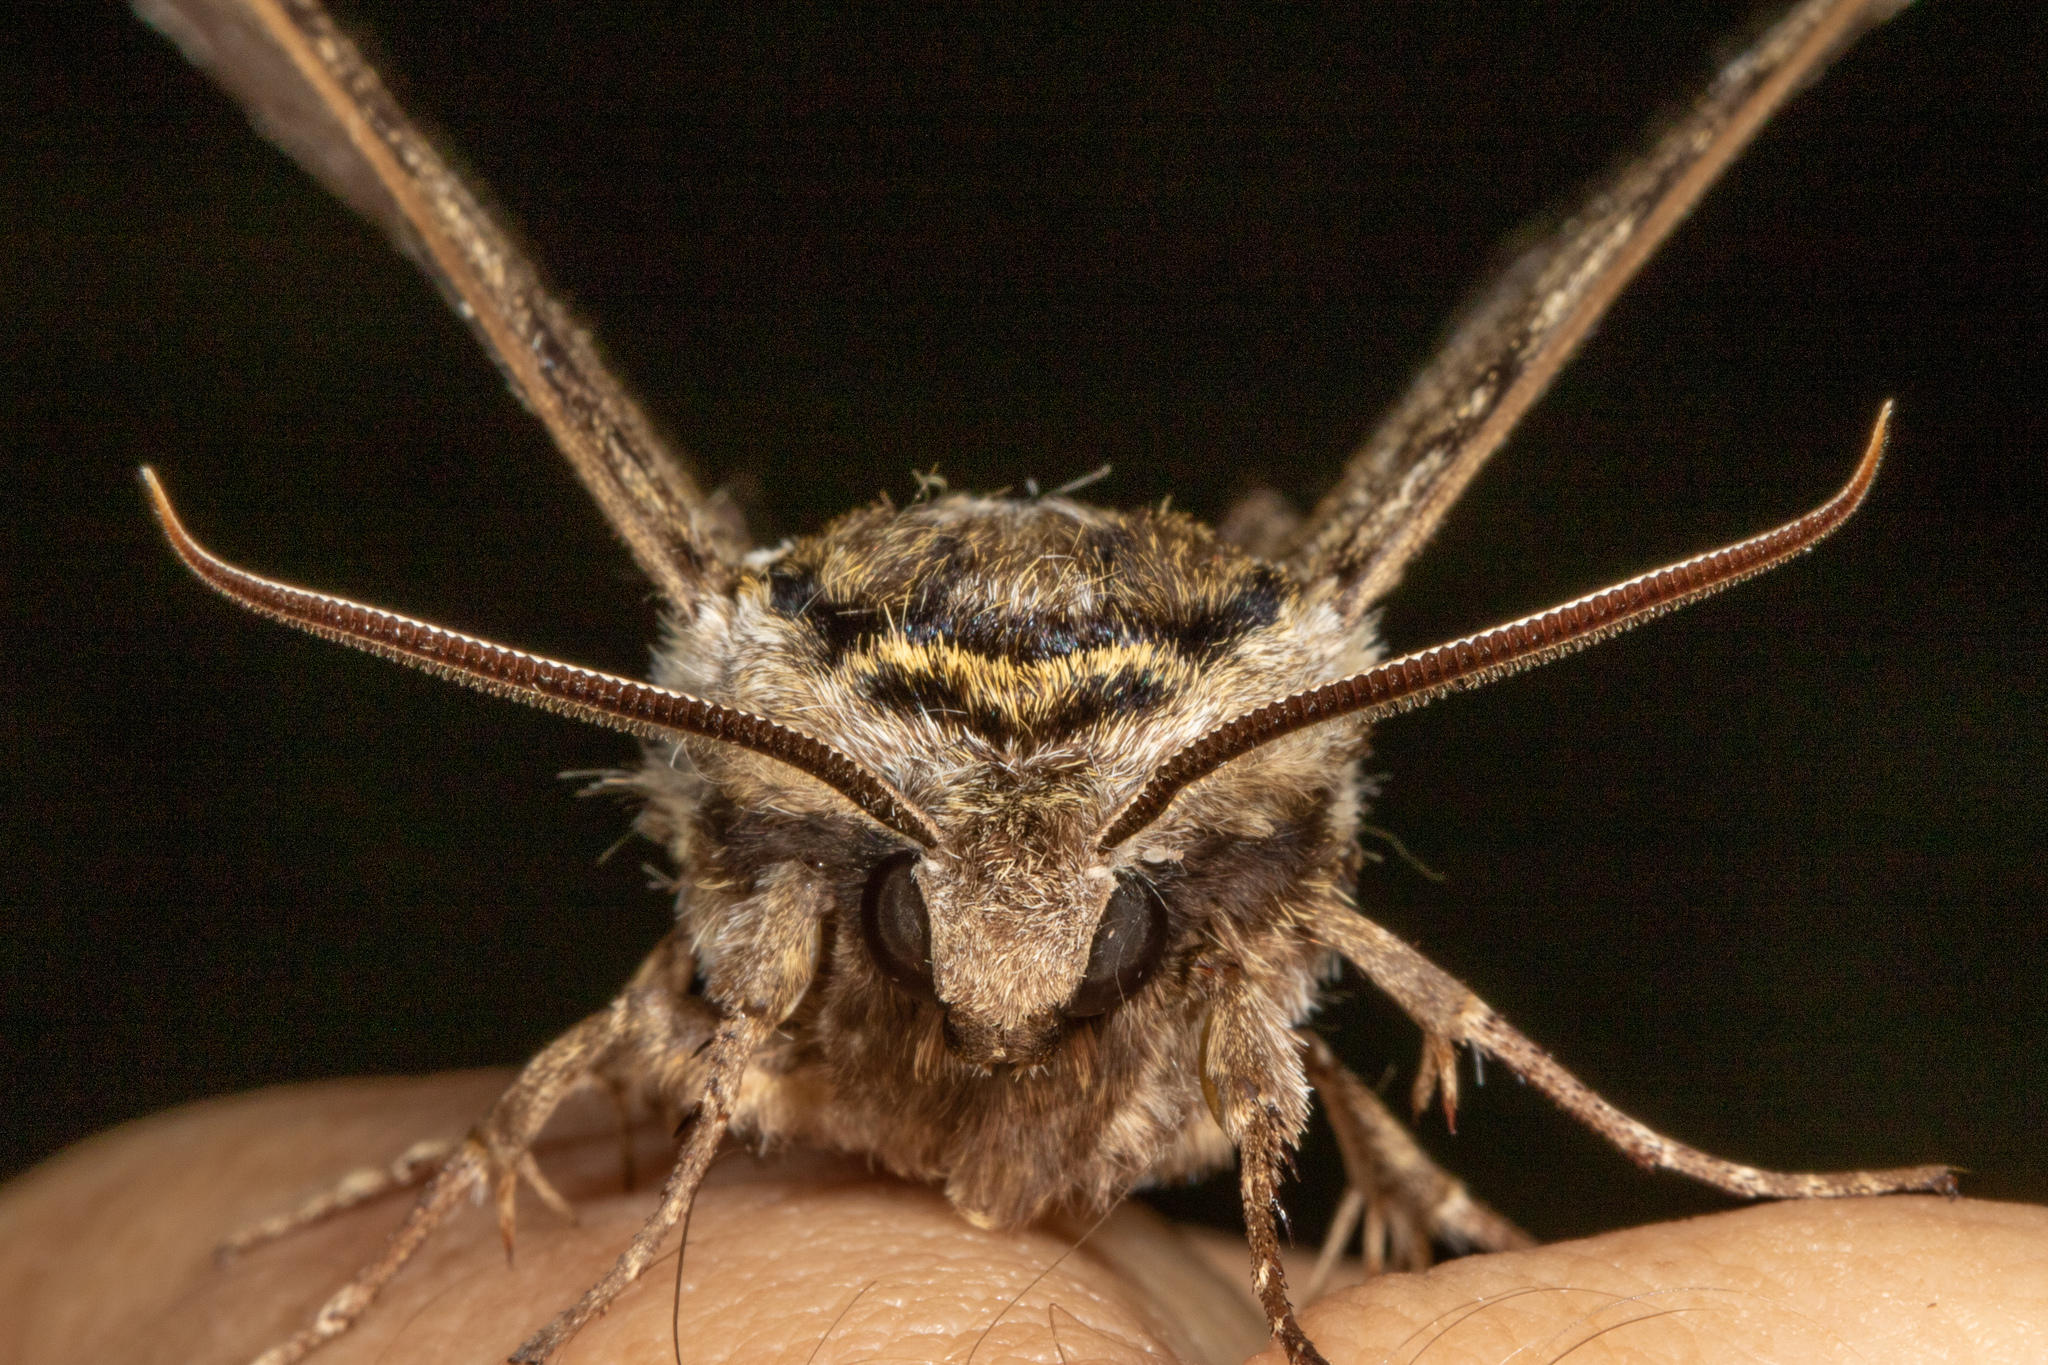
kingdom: Animalia
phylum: Arthropoda
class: Insecta
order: Lepidoptera
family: Sphingidae
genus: Ceratomia
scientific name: Ceratomia undulosa
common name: Waved sphinx
